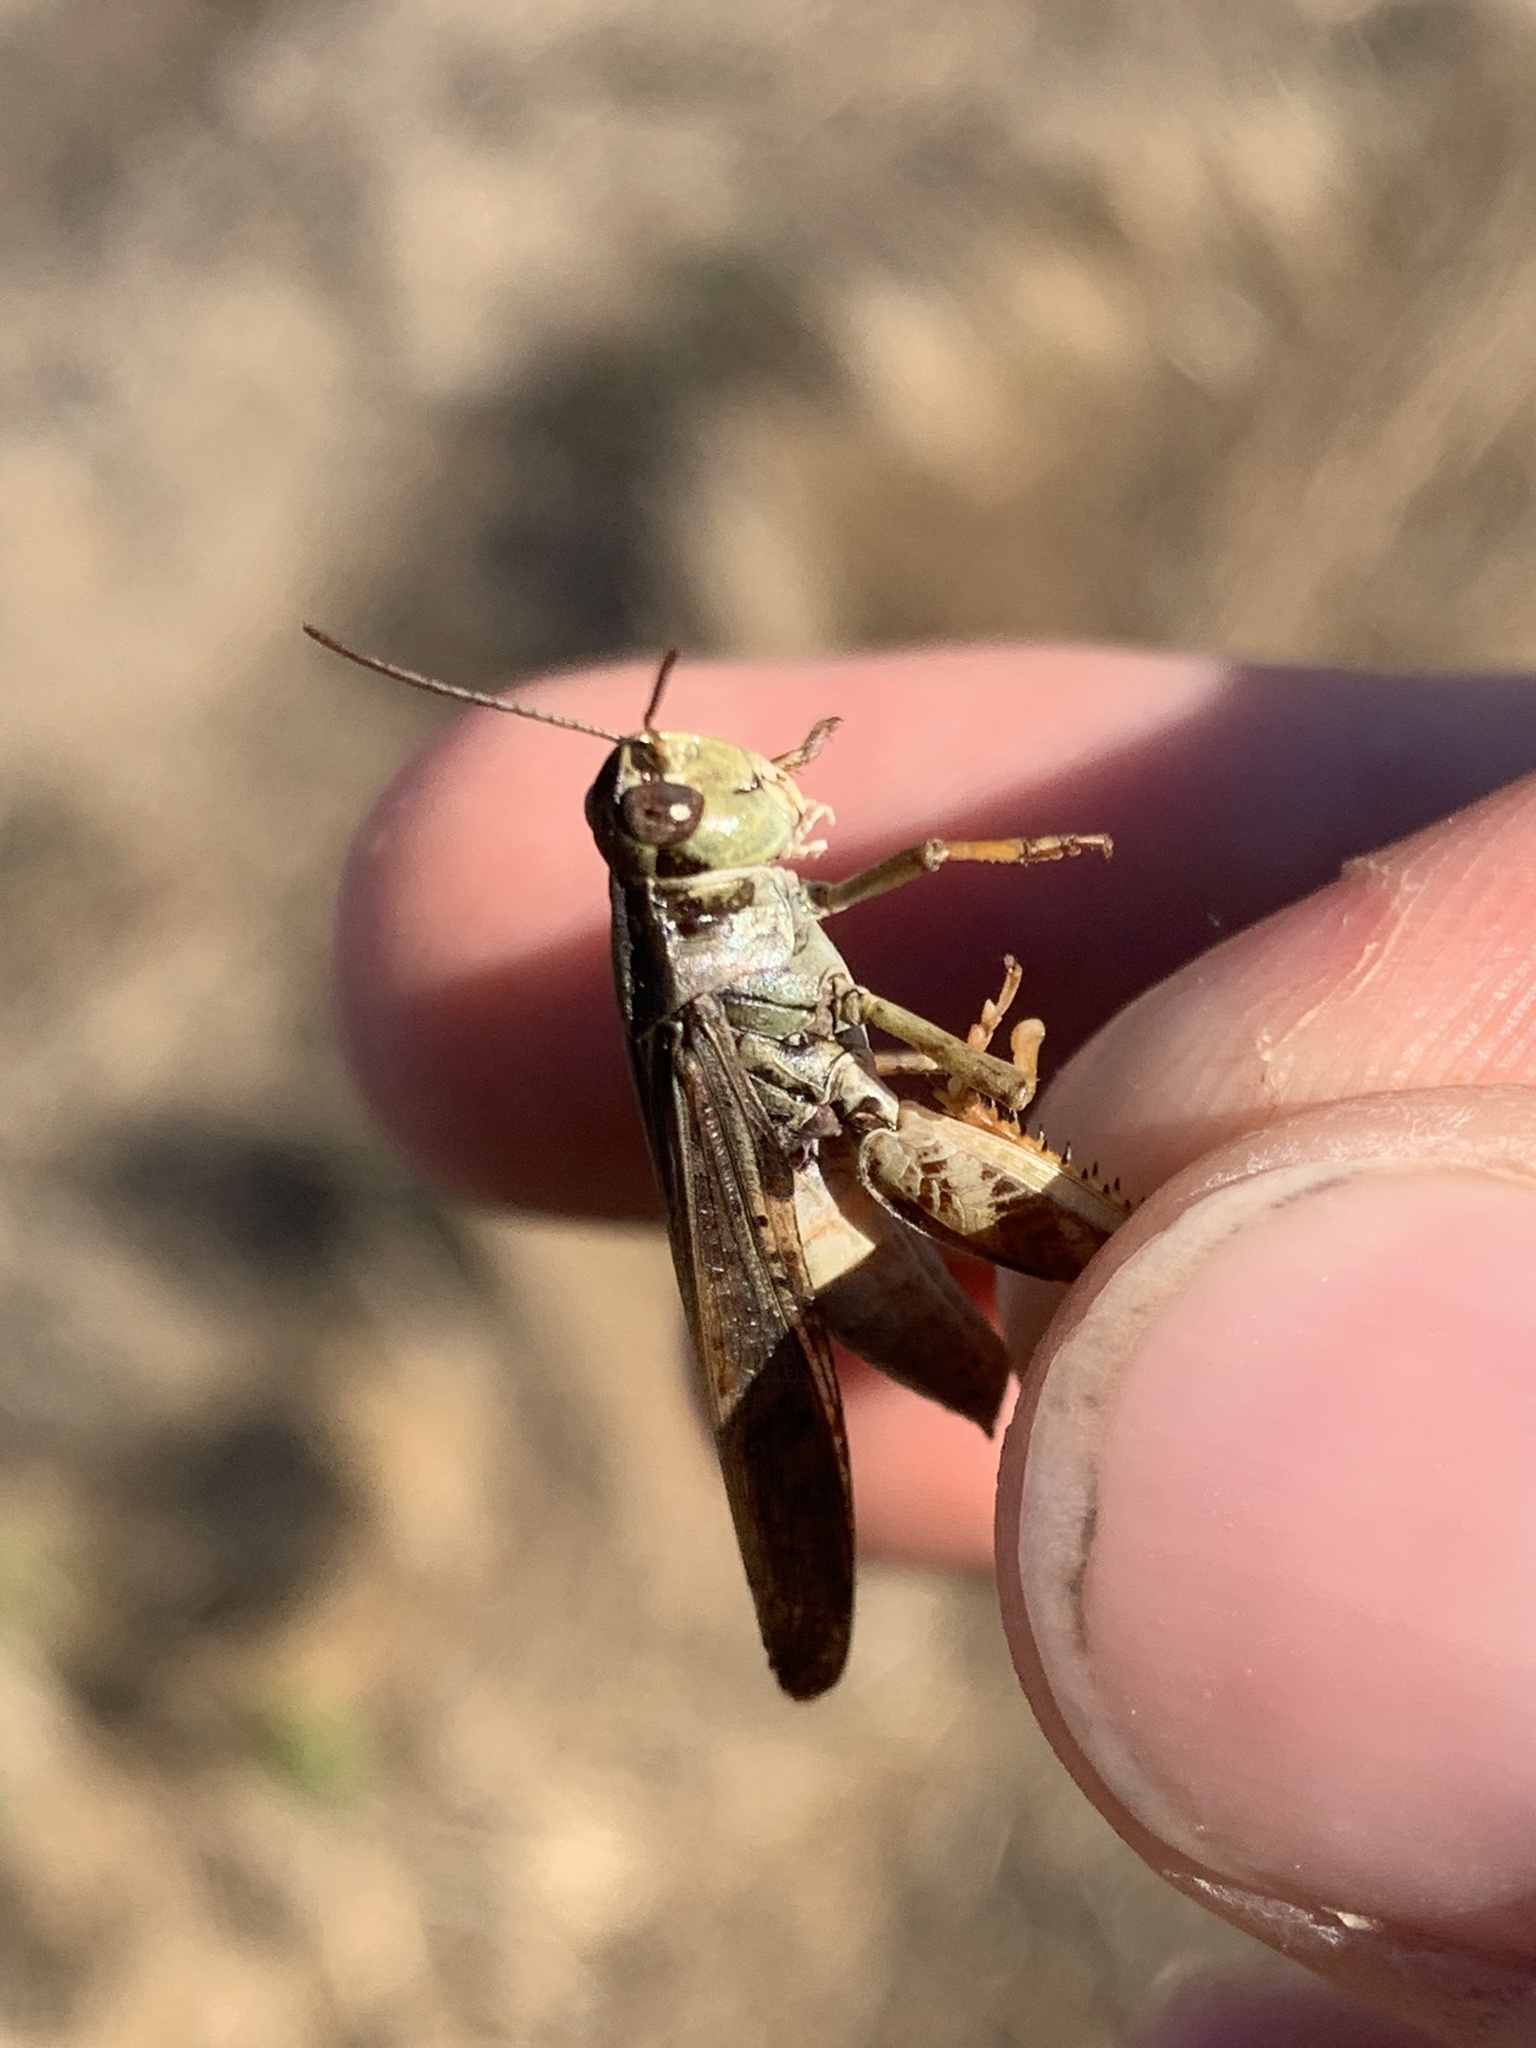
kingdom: Animalia
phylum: Arthropoda
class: Insecta
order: Orthoptera
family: Acrididae
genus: Camnula
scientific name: Camnula pellucida
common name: Clear-winged grasshopper
